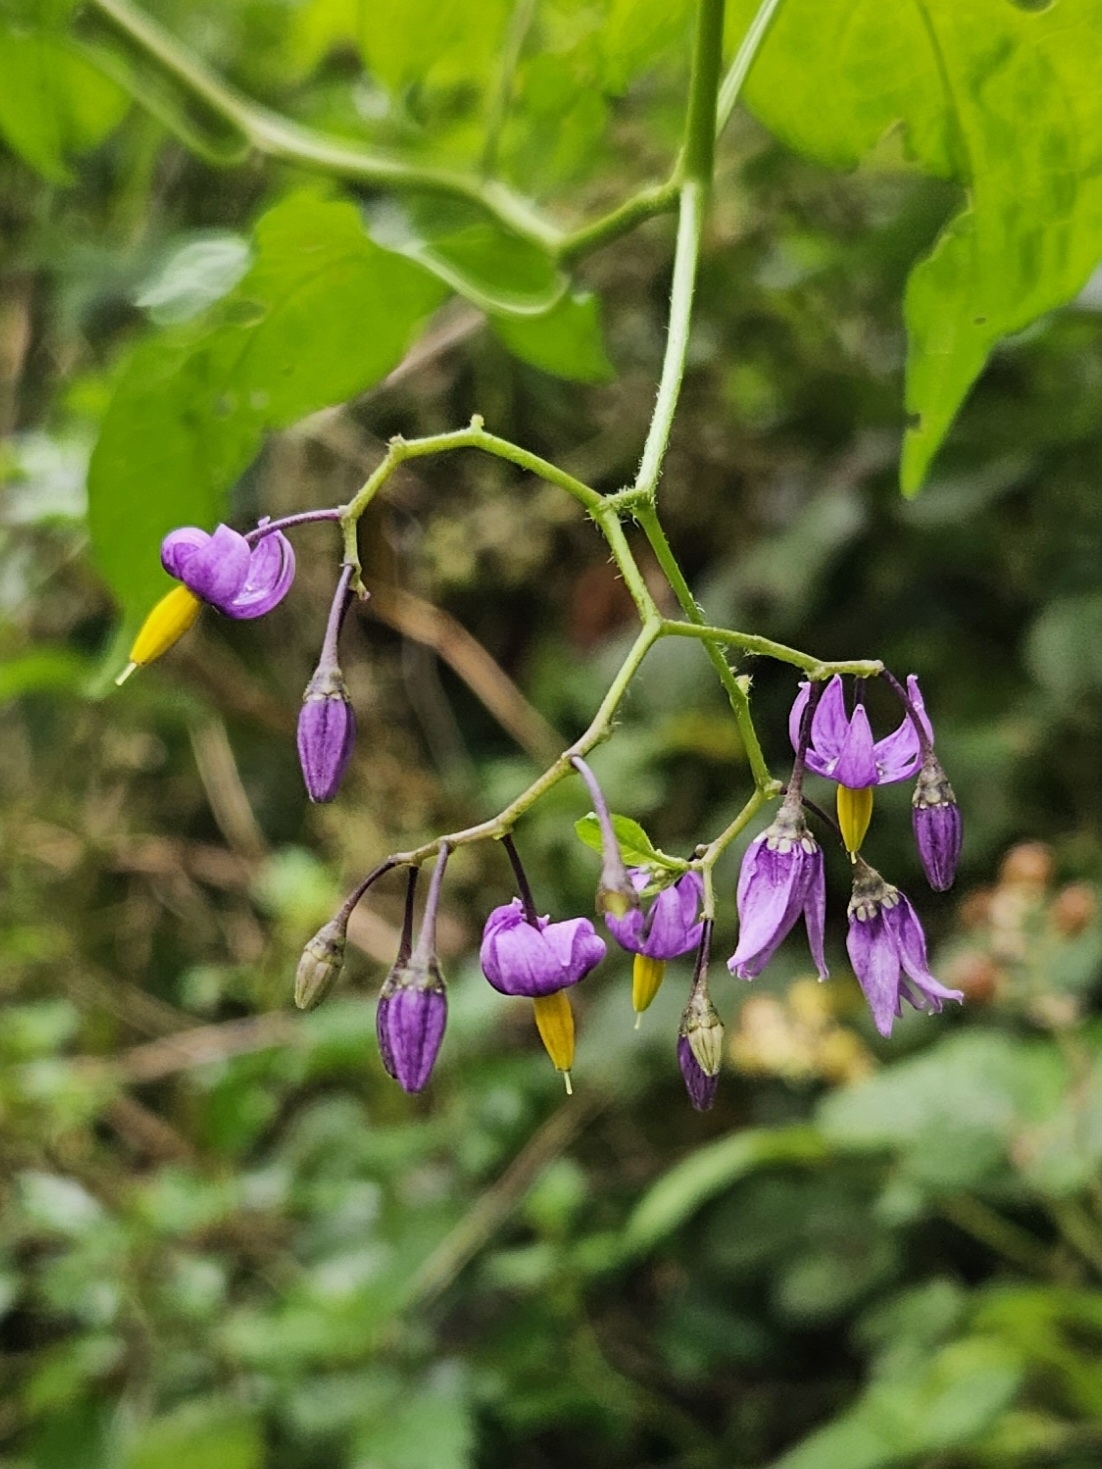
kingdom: Plantae
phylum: Tracheophyta
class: Magnoliopsida
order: Solanales
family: Solanaceae
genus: Solanum
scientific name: Solanum dulcamara
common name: Climbing nightshade
